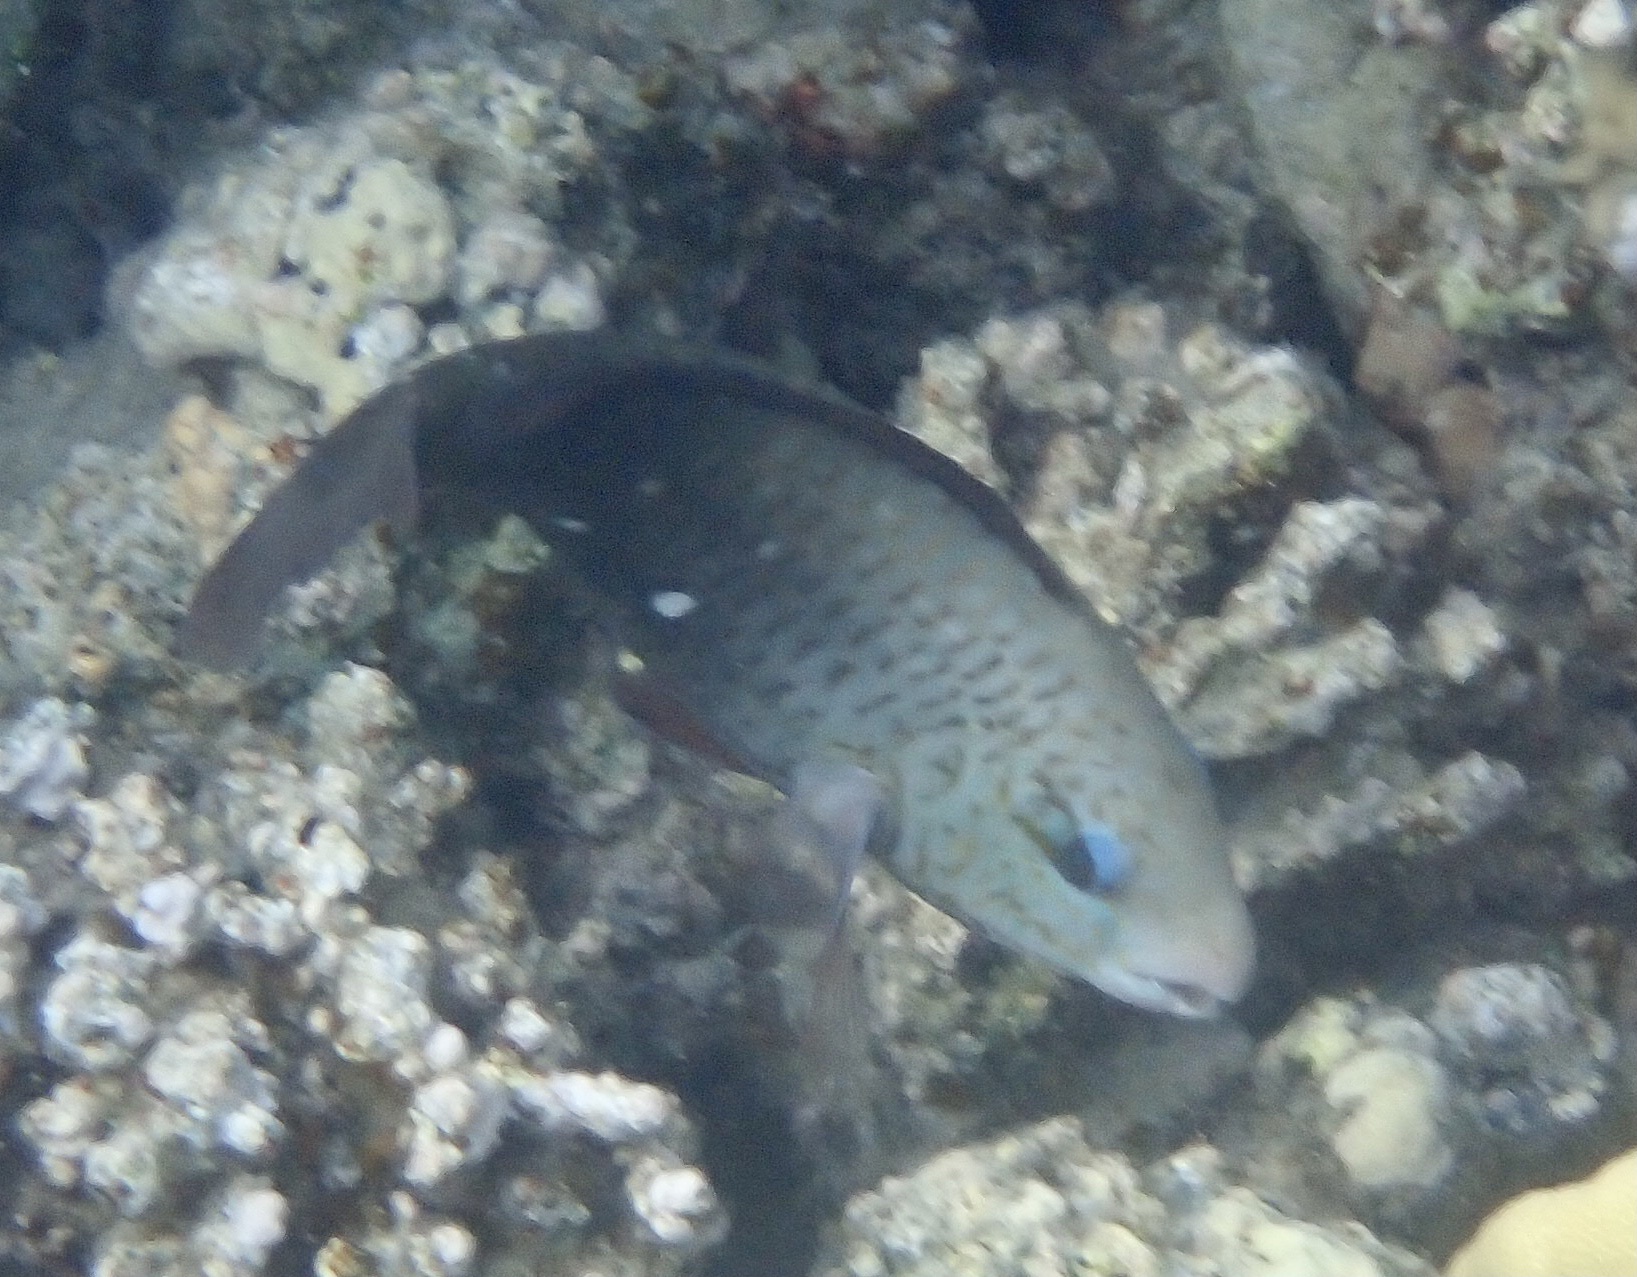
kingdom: Animalia
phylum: Chordata
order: Perciformes
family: Scaridae
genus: Chlorurus
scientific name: Chlorurus sordidus
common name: Bullethead parrotfish
